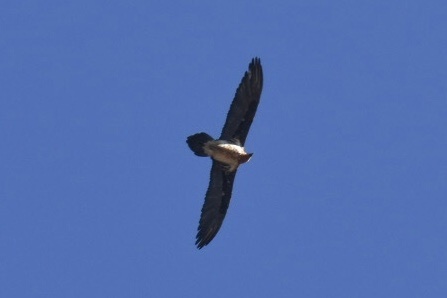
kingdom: Animalia
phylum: Chordata
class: Aves
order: Accipitriformes
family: Accipitridae
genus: Gypaetus
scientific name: Gypaetus barbatus
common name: Bearded vulture
